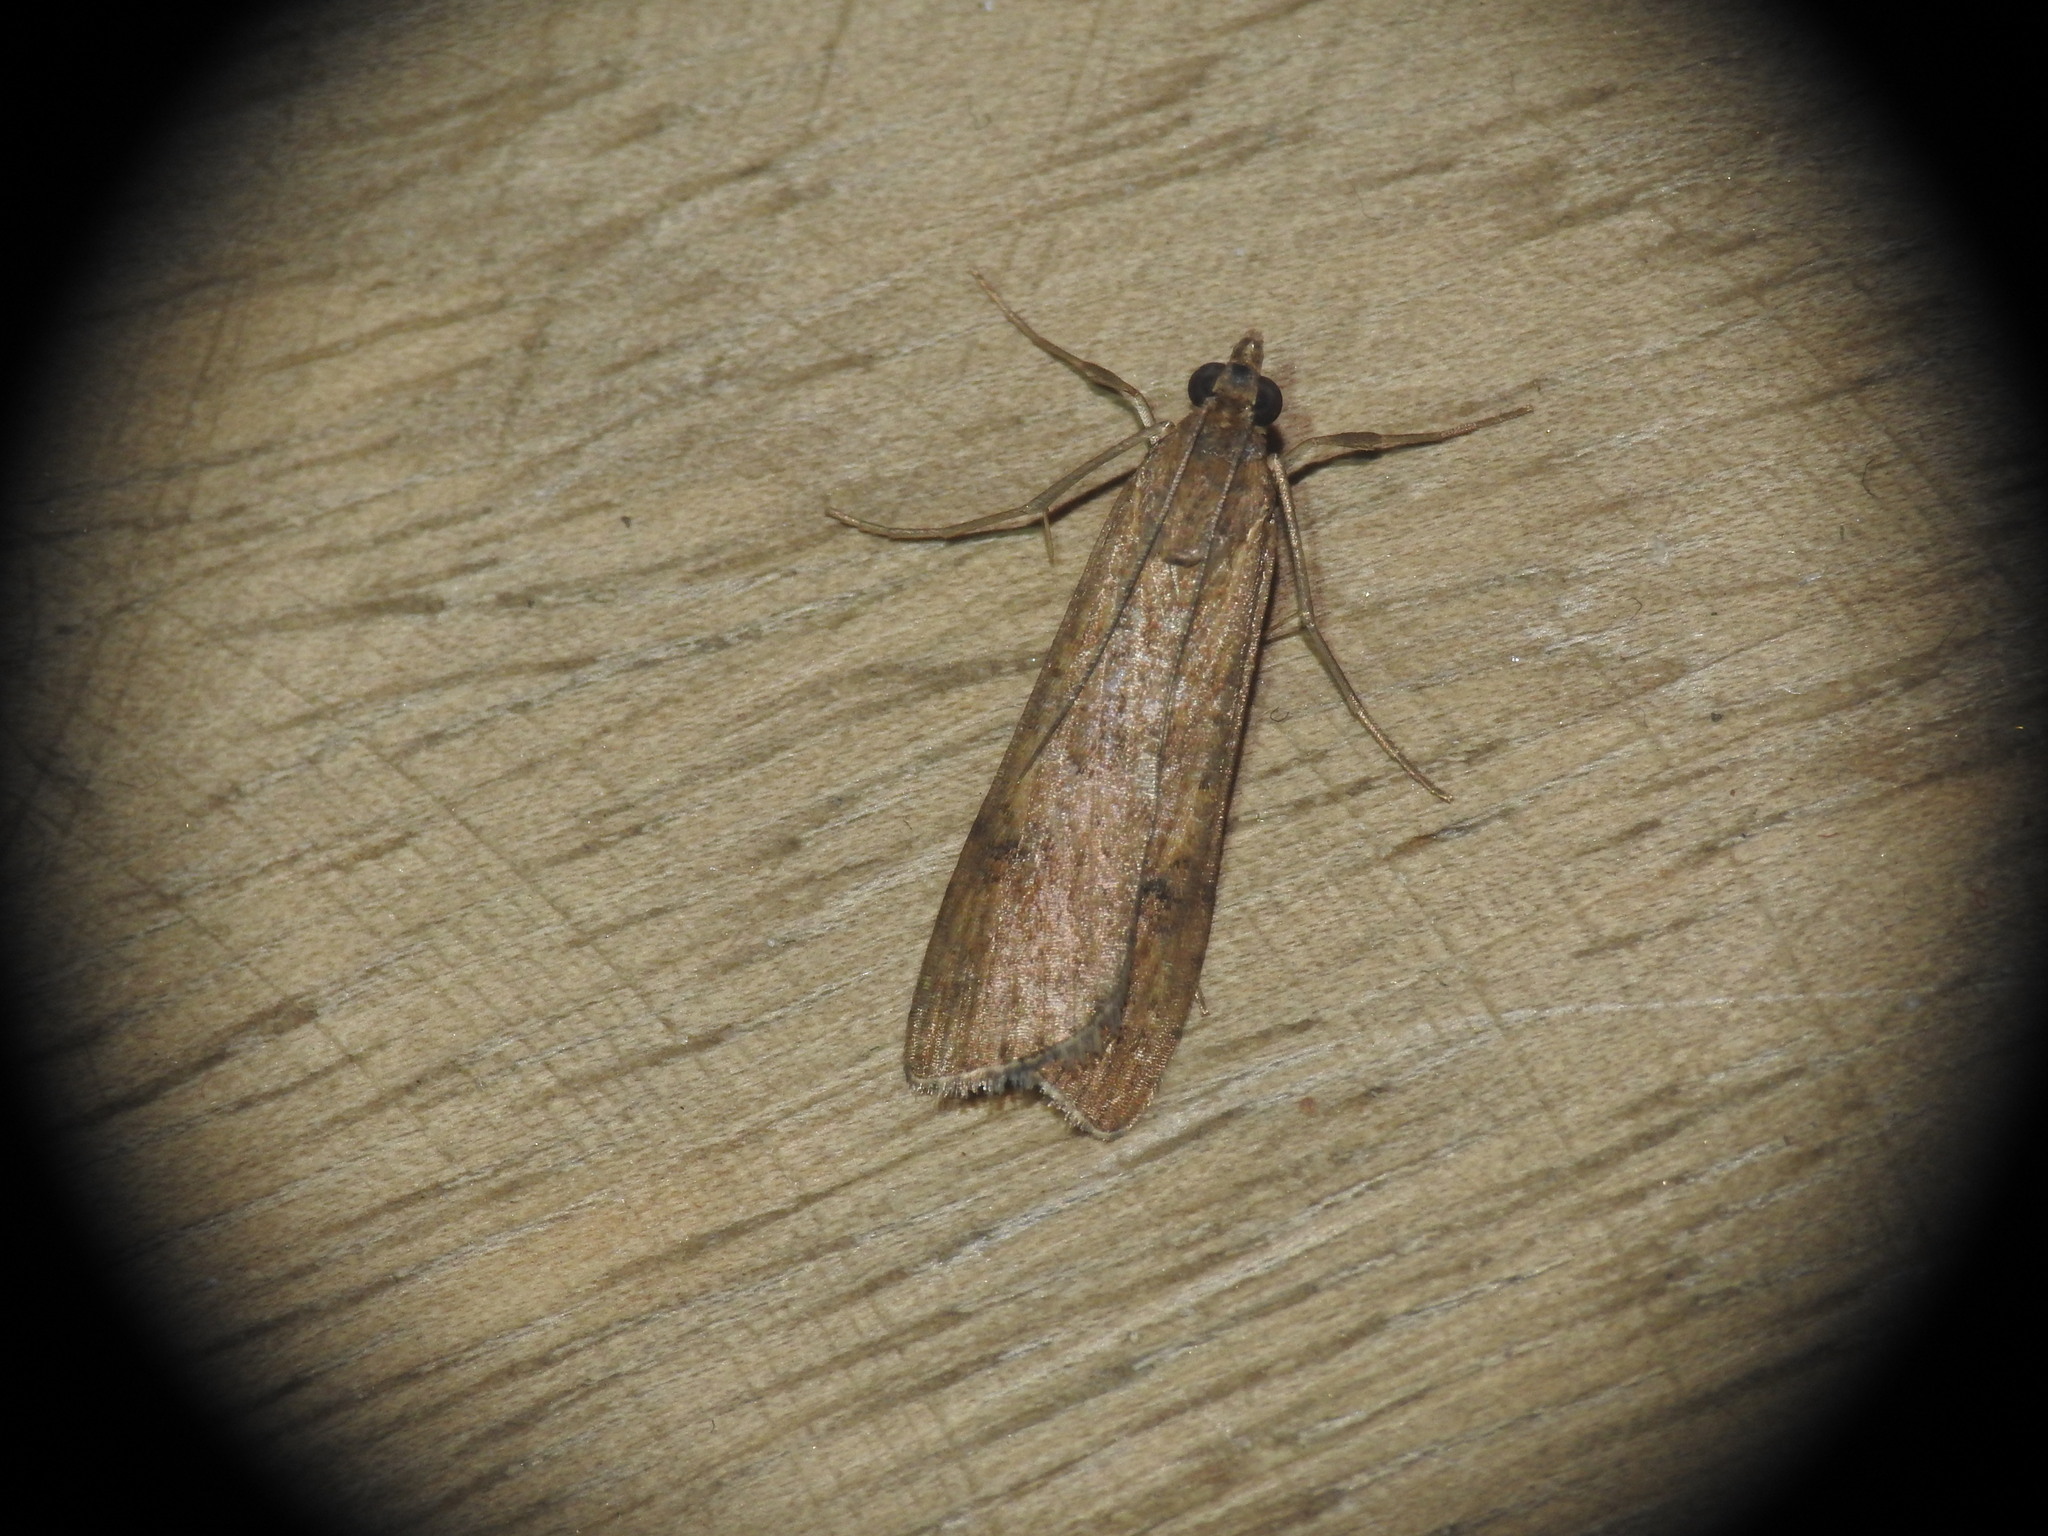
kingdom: Animalia
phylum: Arthropoda
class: Insecta
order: Lepidoptera
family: Crambidae
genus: Nomophila
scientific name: Nomophila noctuella
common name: Rush veneer
